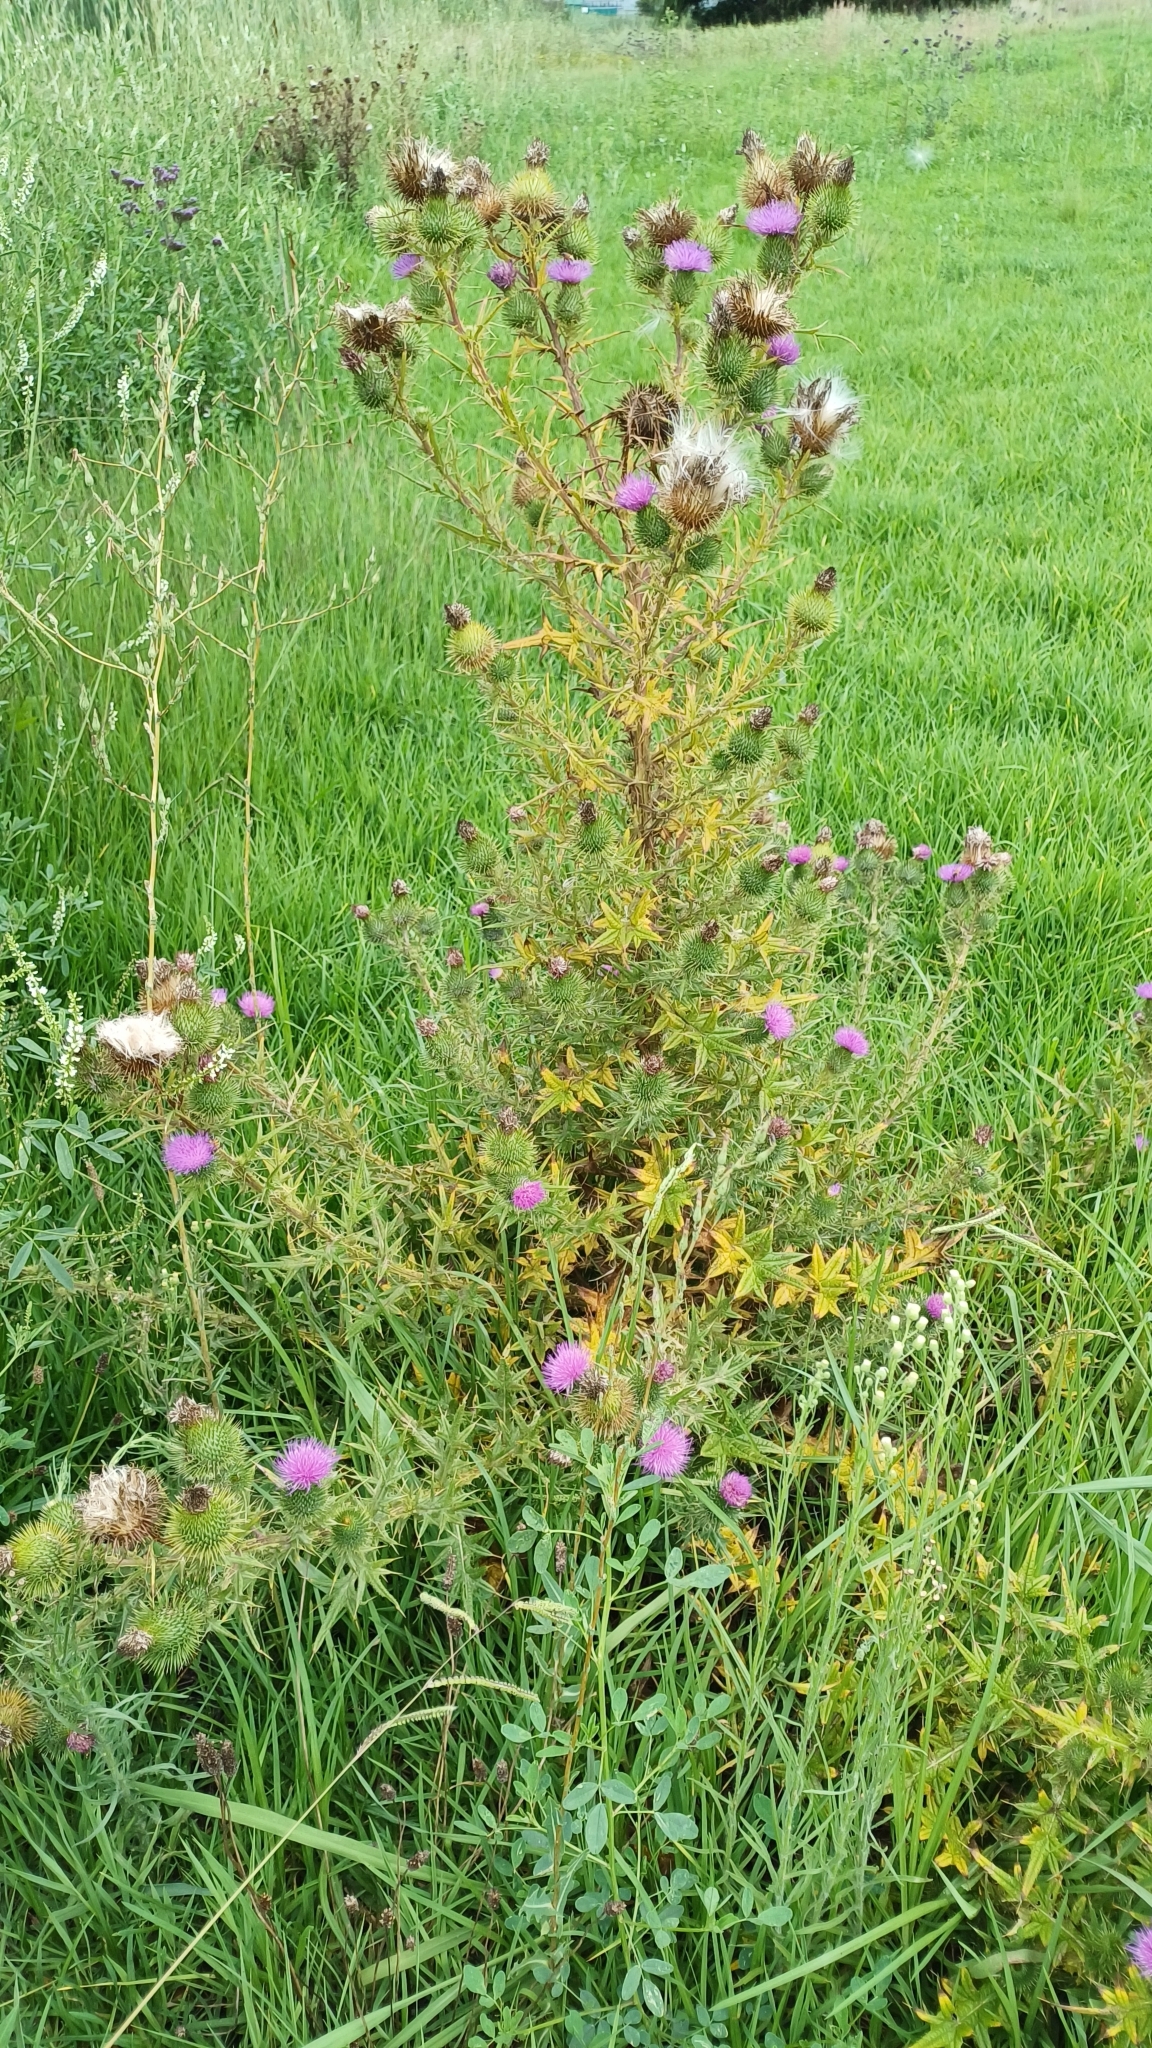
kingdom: Plantae
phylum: Tracheophyta
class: Magnoliopsida
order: Asterales
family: Asteraceae
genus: Cirsium
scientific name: Cirsium vulgare
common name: Bull thistle
